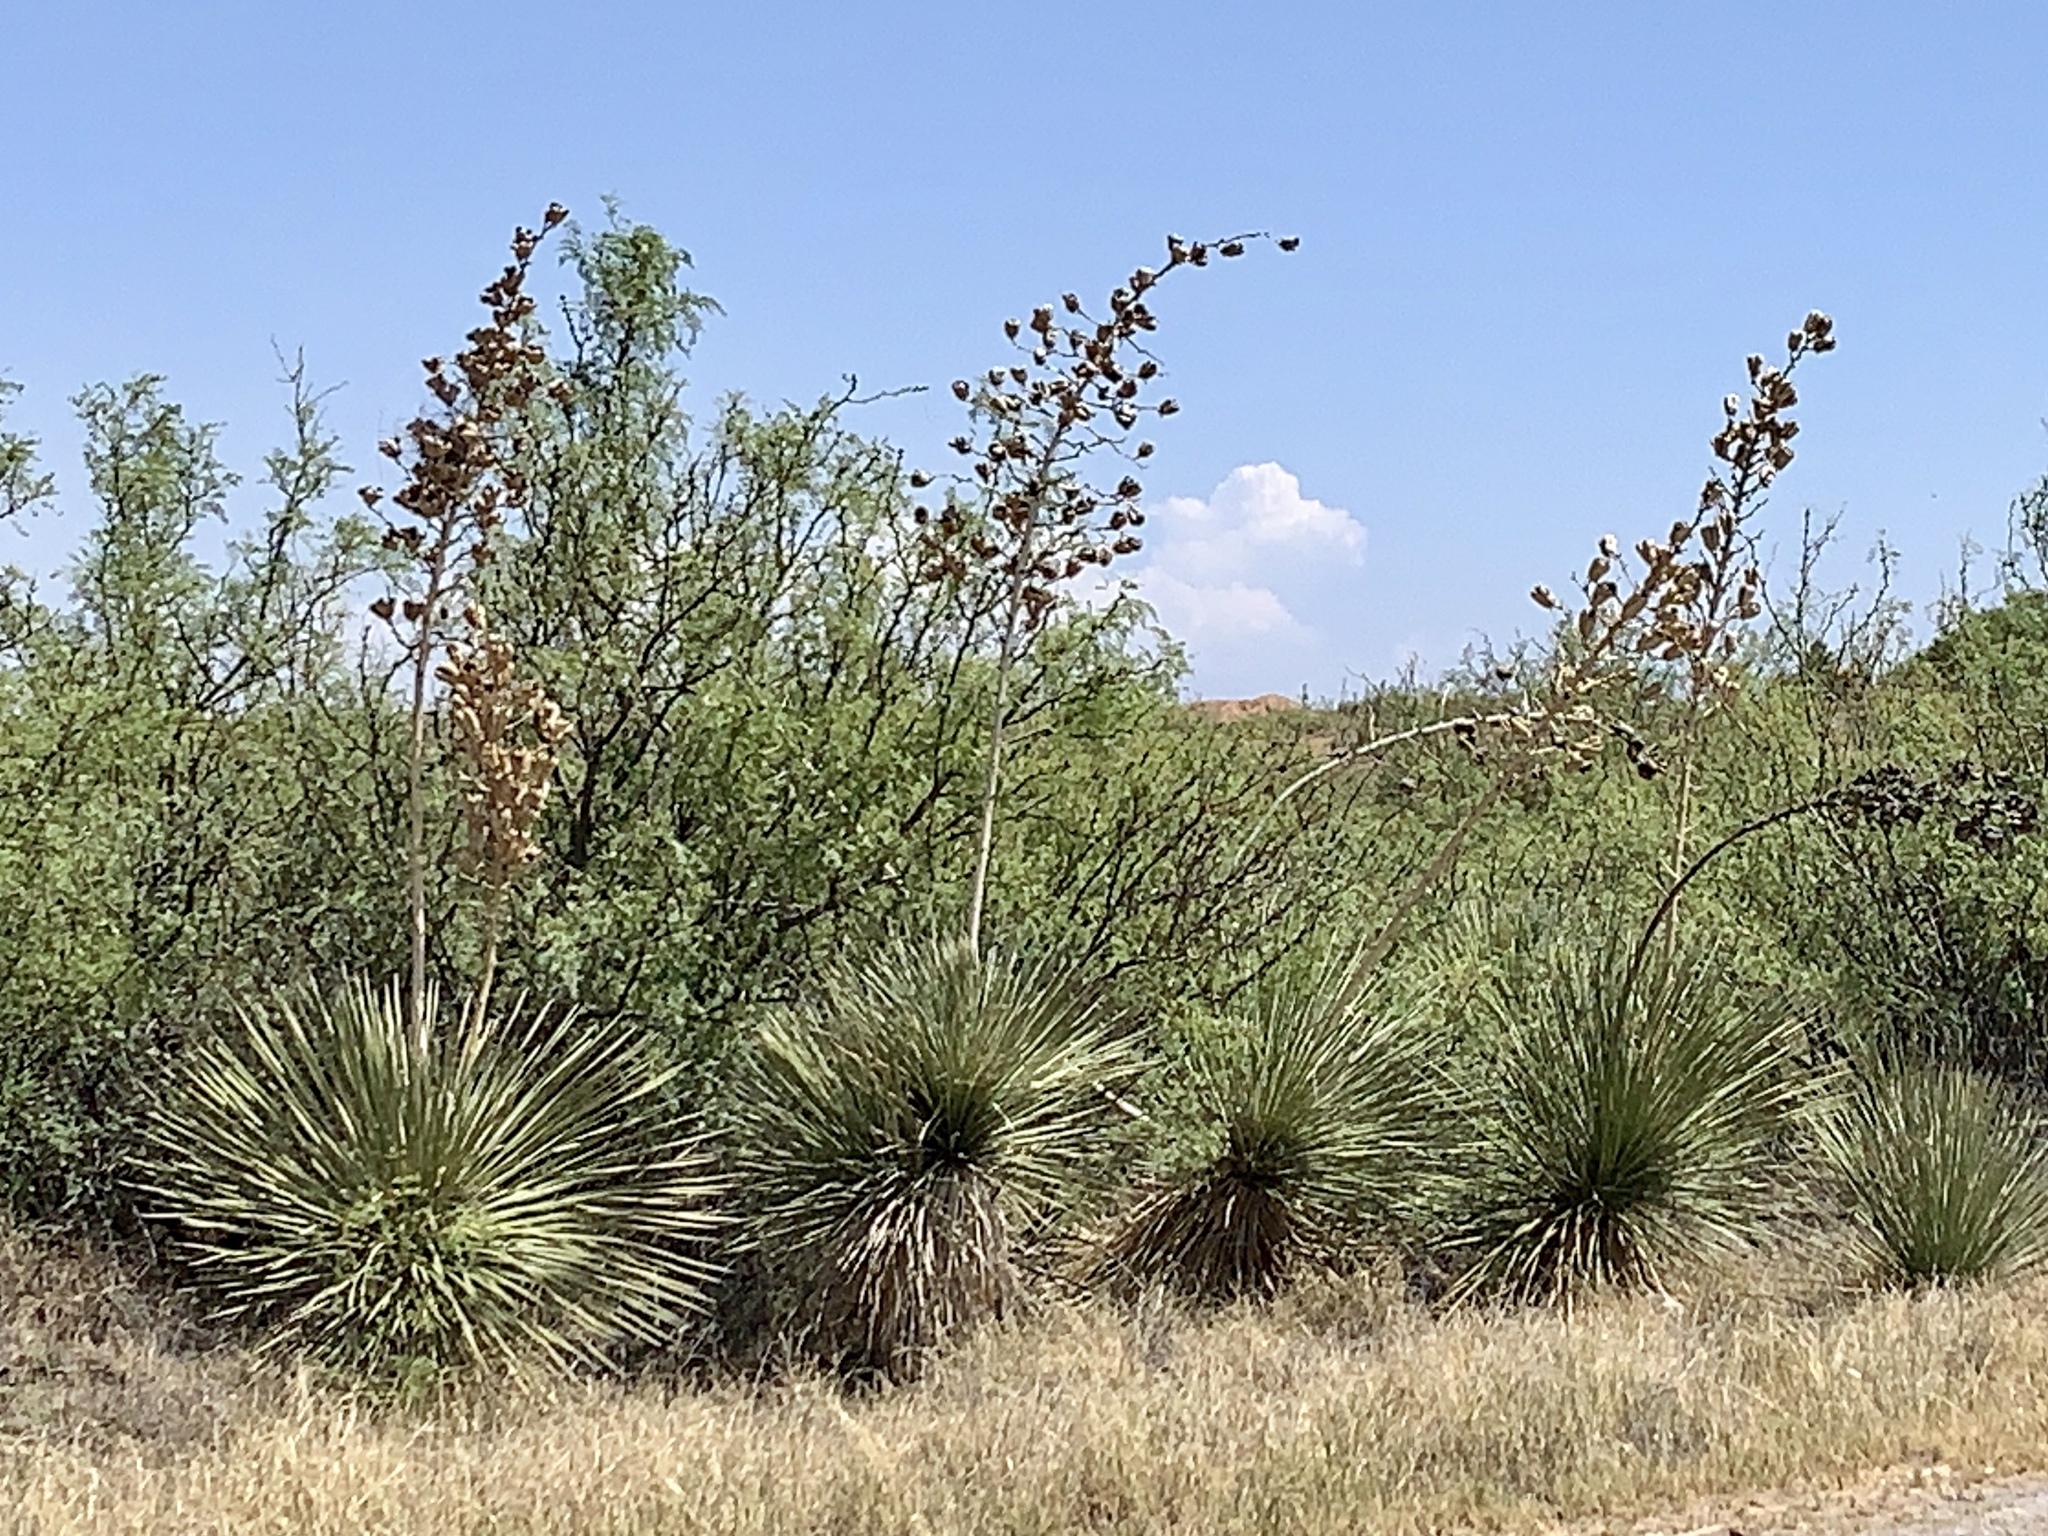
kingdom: Plantae
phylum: Tracheophyta
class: Liliopsida
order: Asparagales
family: Asparagaceae
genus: Yucca
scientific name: Yucca elata
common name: Palmella
